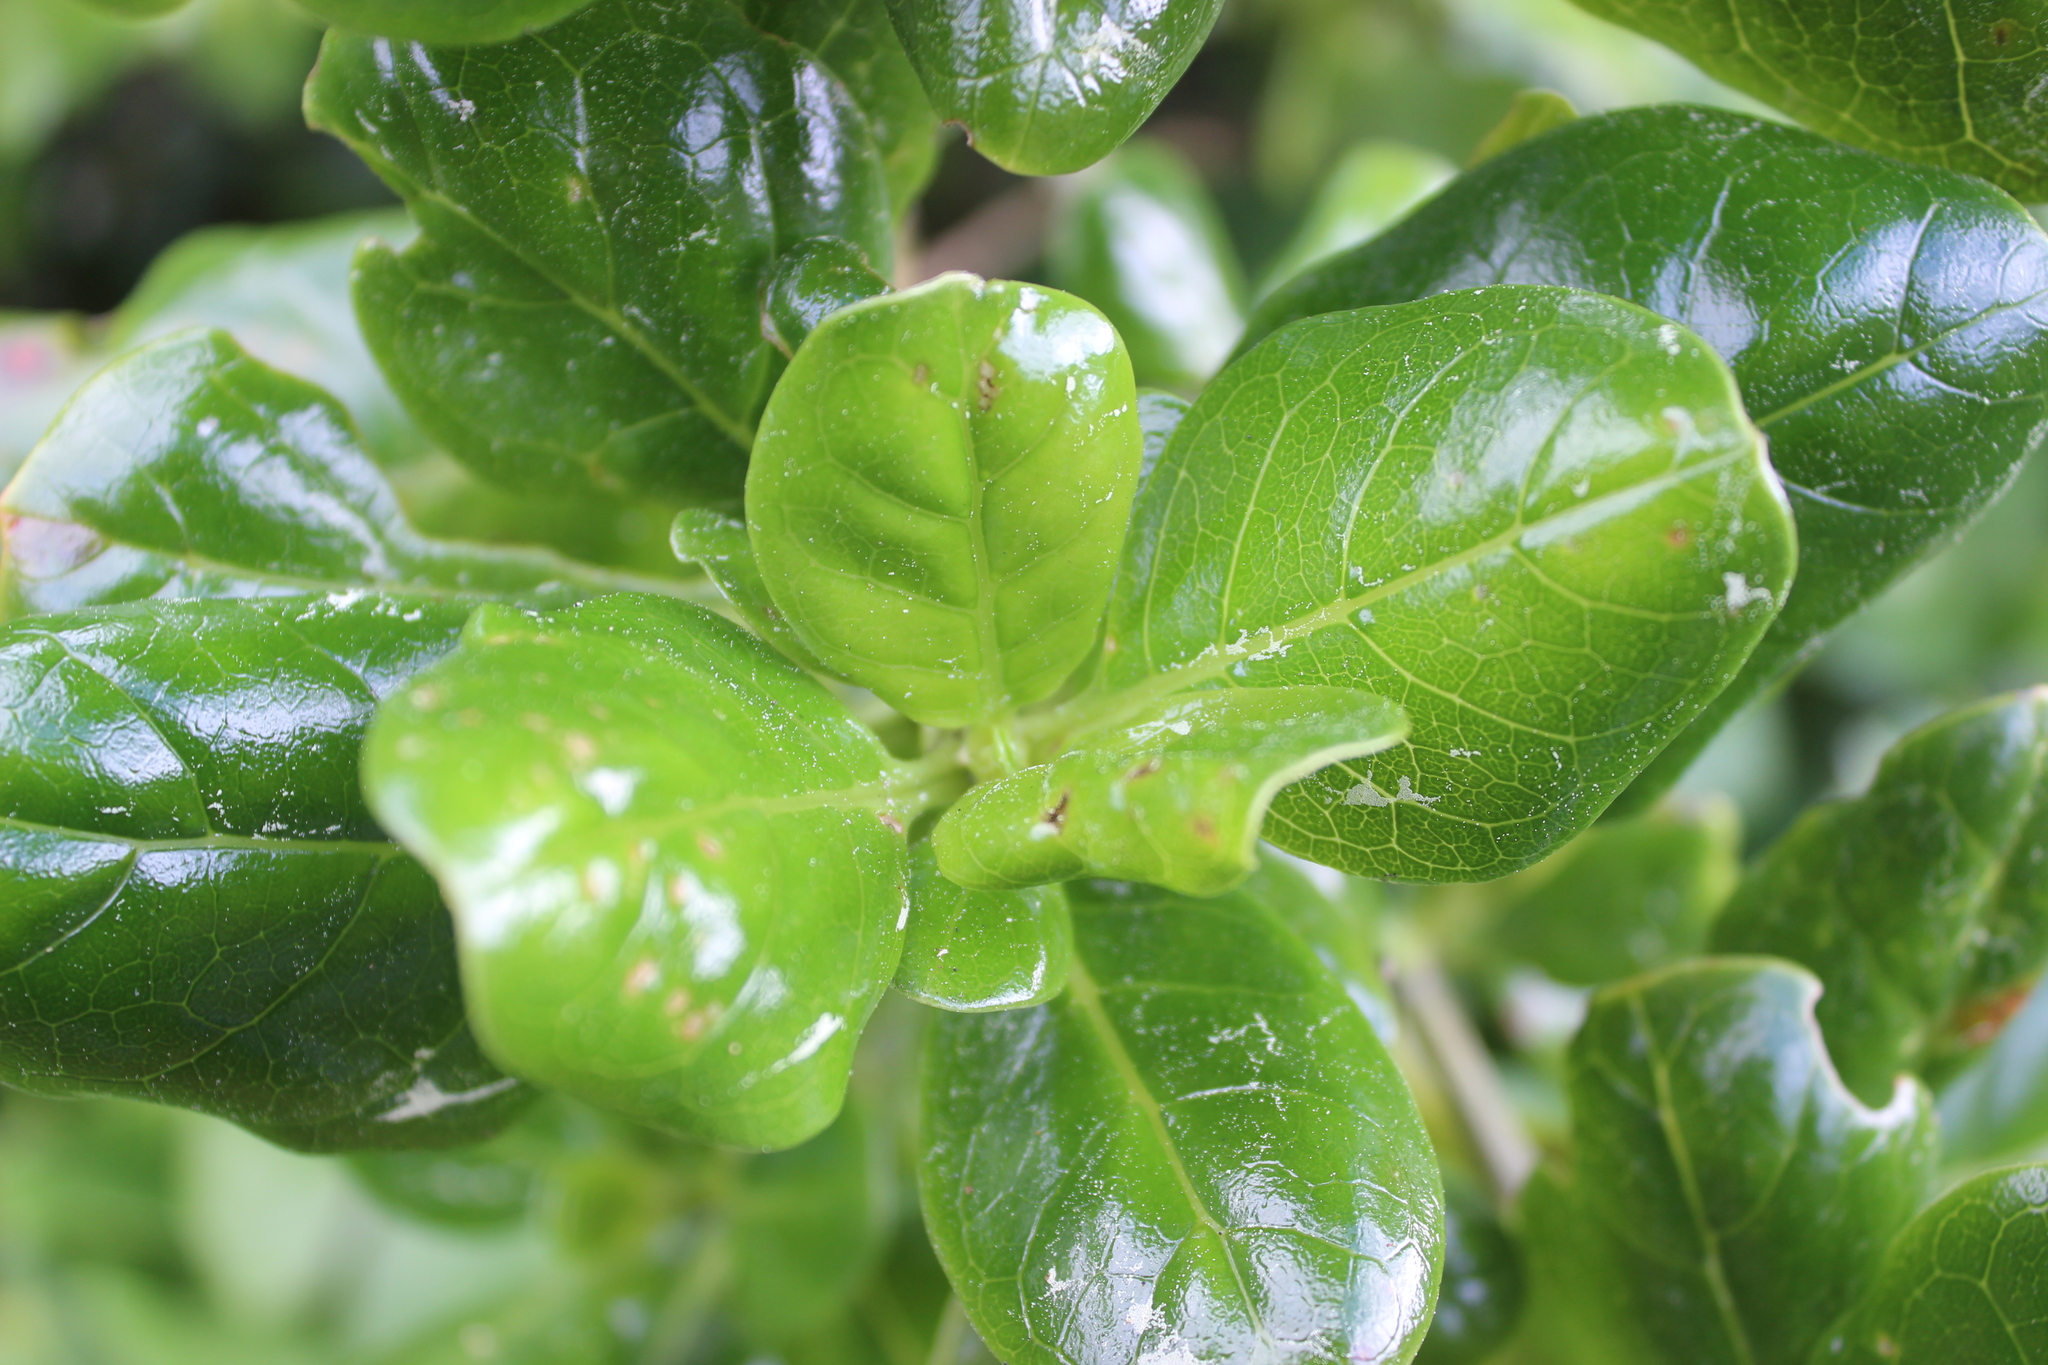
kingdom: Plantae
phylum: Tracheophyta
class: Magnoliopsida
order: Gentianales
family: Rubiaceae
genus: Coprosma
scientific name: Coprosma repens
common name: Tree bedstraw
